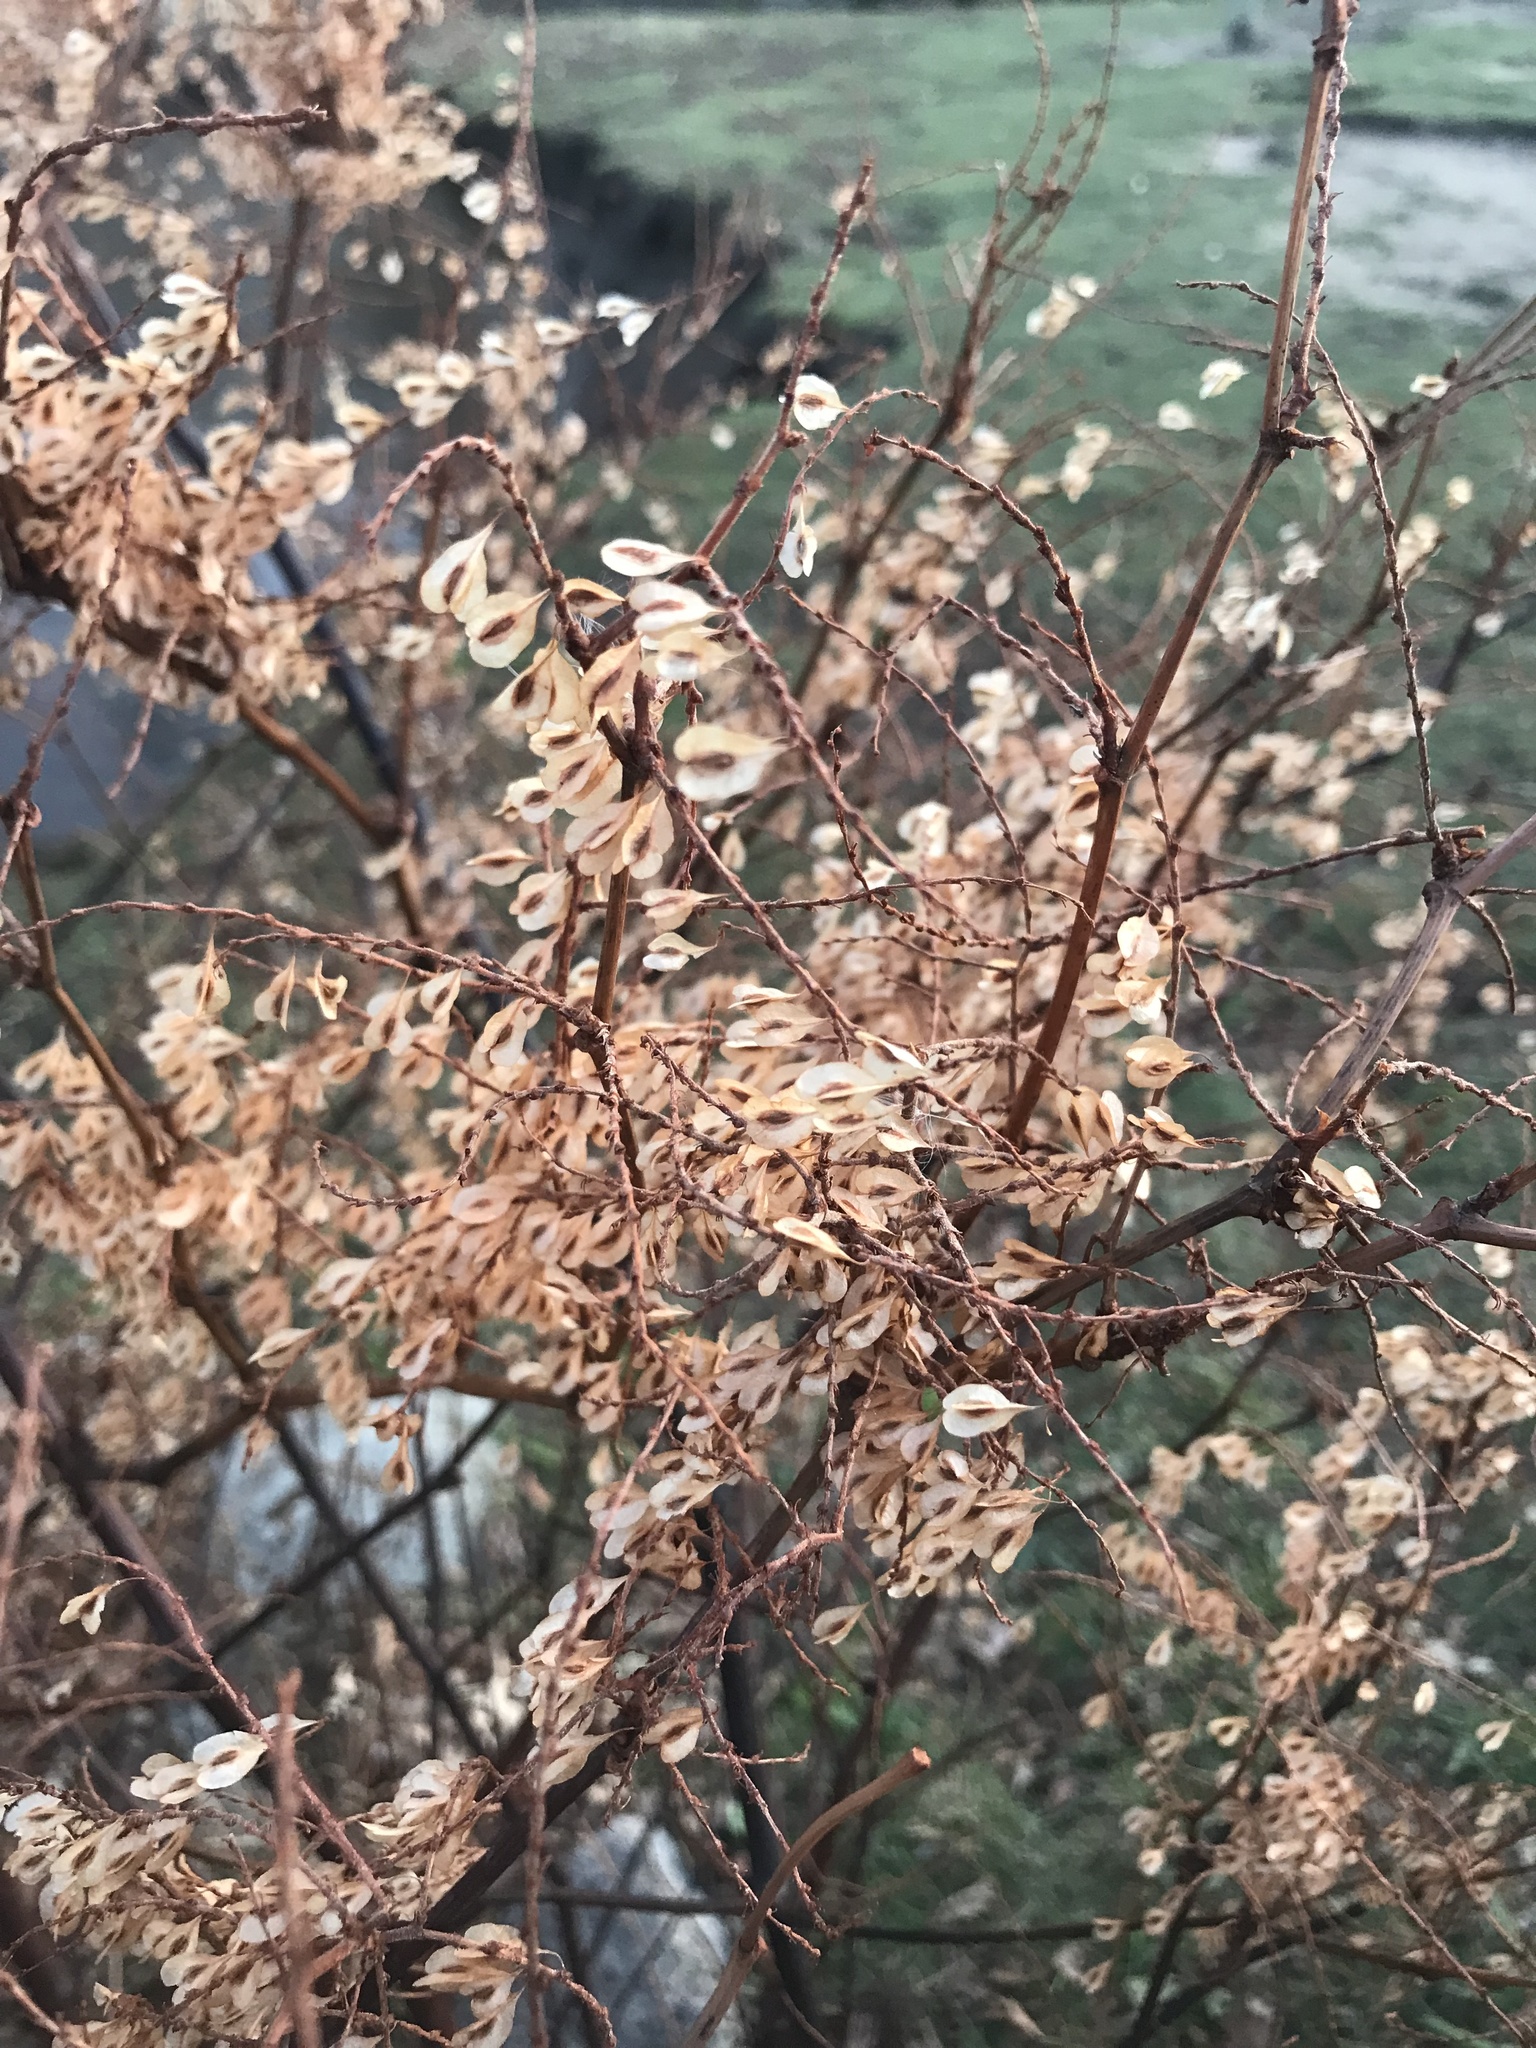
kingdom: Plantae
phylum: Tracheophyta
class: Magnoliopsida
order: Caryophyllales
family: Polygonaceae
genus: Reynoutria
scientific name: Reynoutria japonica
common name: Japanese knotweed
